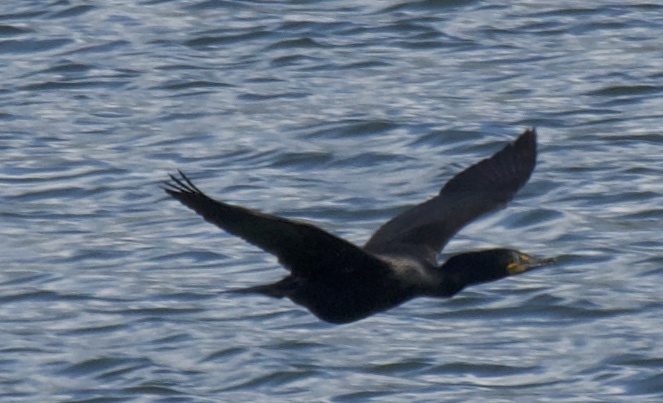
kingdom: Animalia
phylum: Chordata
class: Aves
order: Suliformes
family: Phalacrocoracidae
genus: Phalacrocorax
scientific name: Phalacrocorax auritus
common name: Double-crested cormorant
